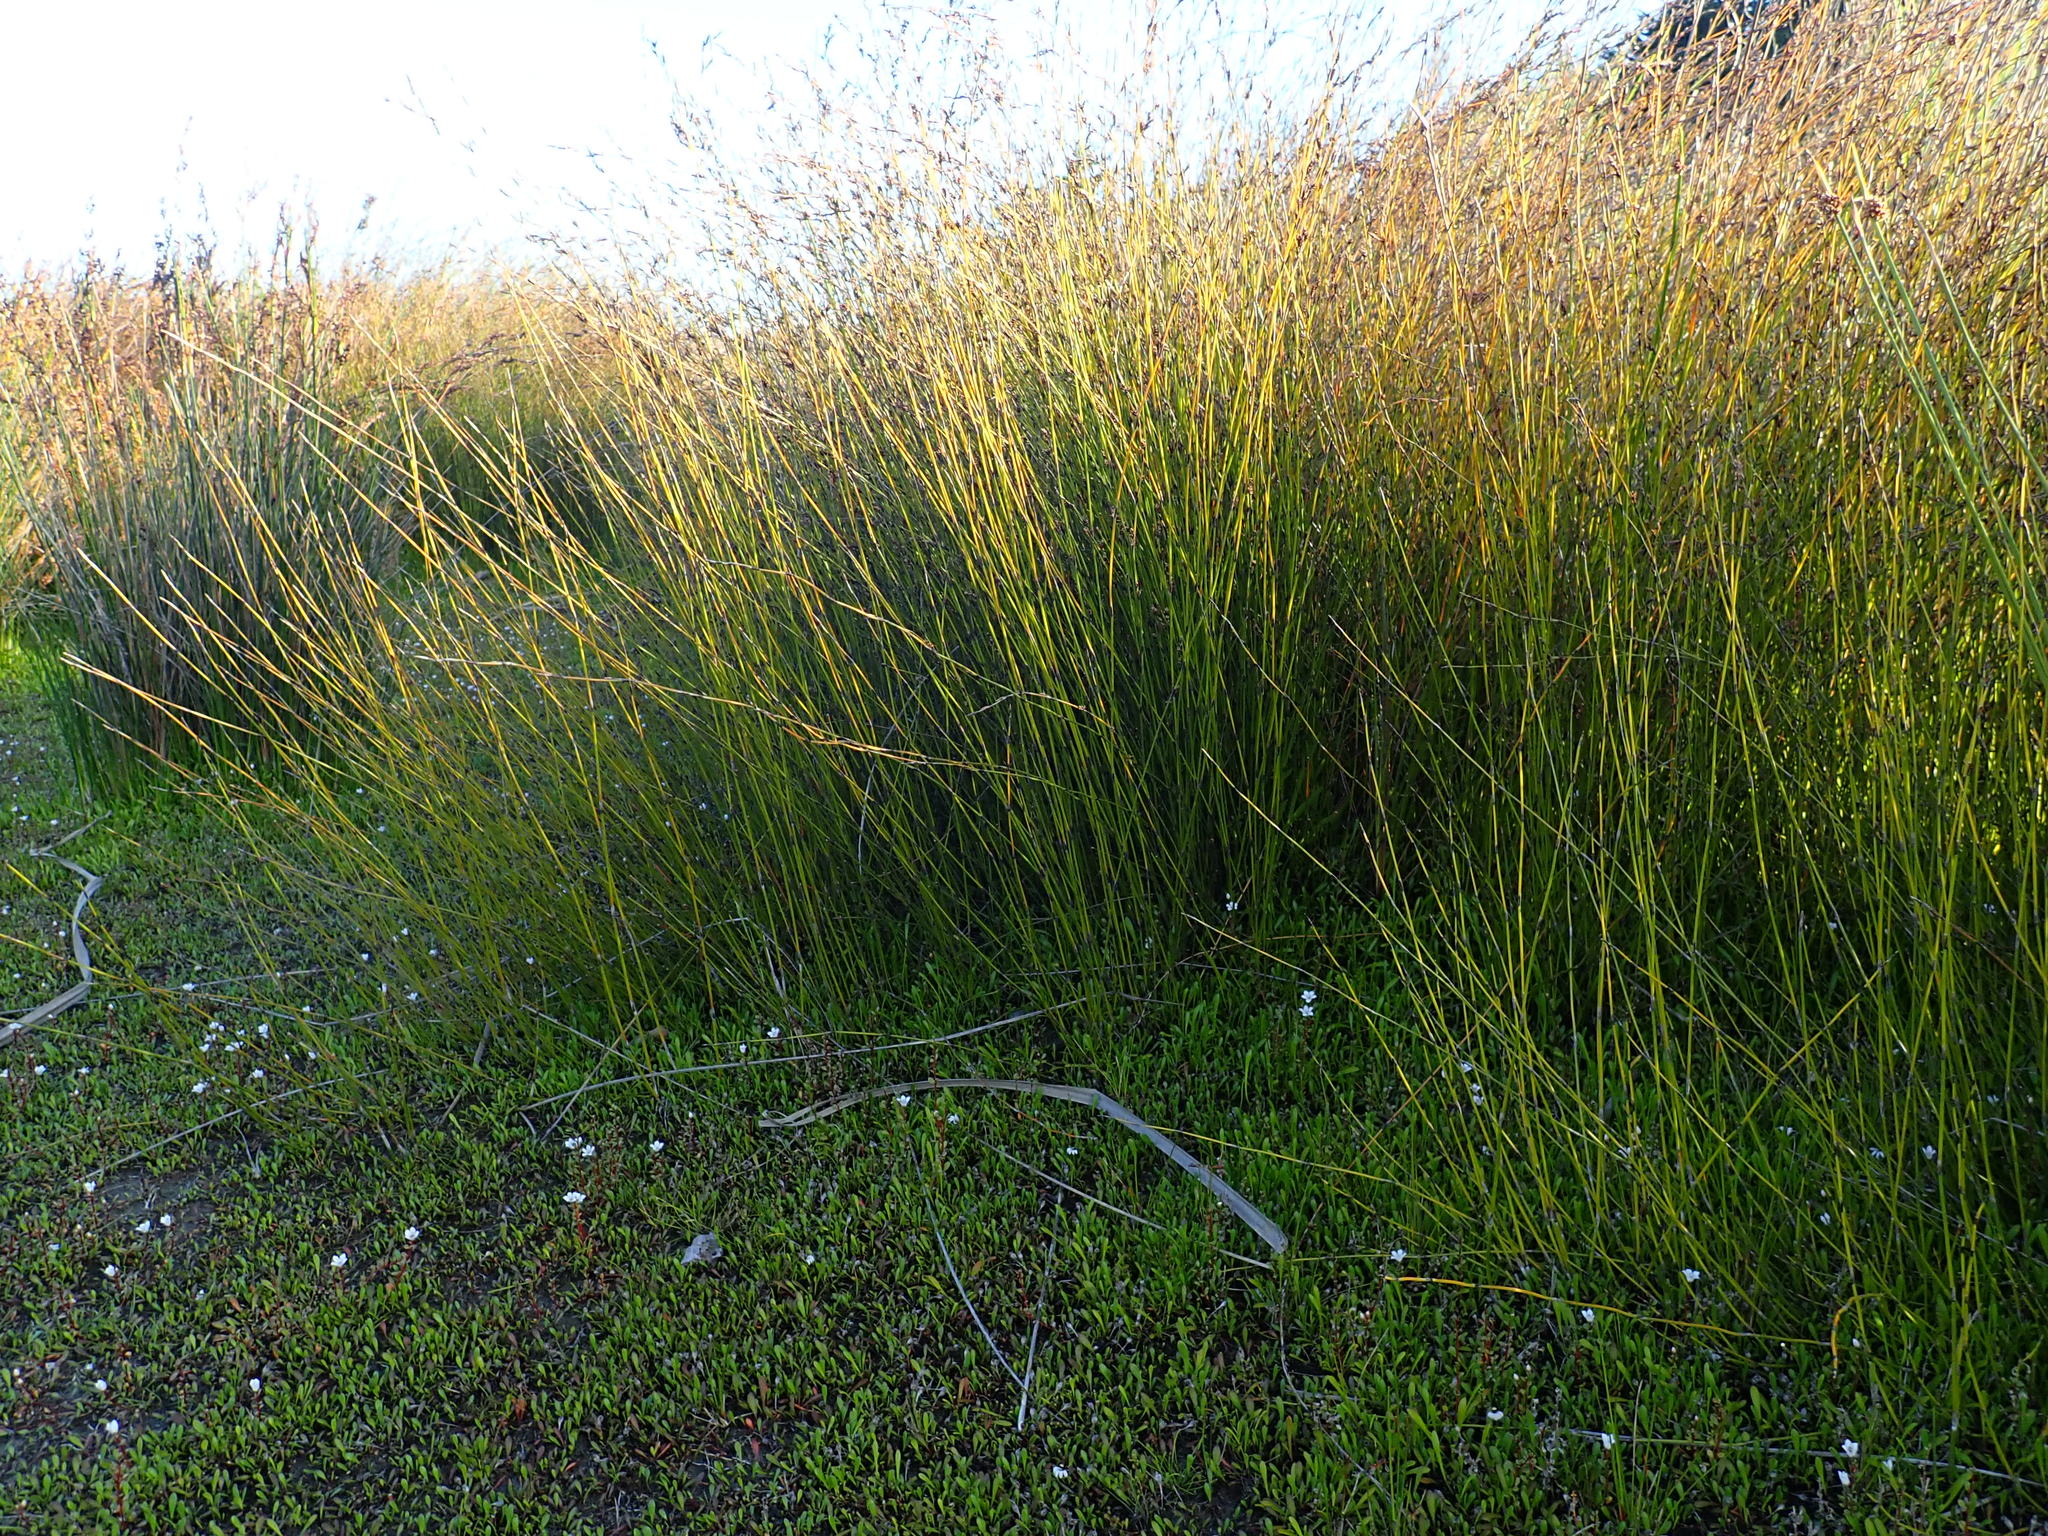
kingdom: Plantae
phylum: Tracheophyta
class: Liliopsida
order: Poales
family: Restionaceae
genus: Apodasmia
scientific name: Apodasmia similis
